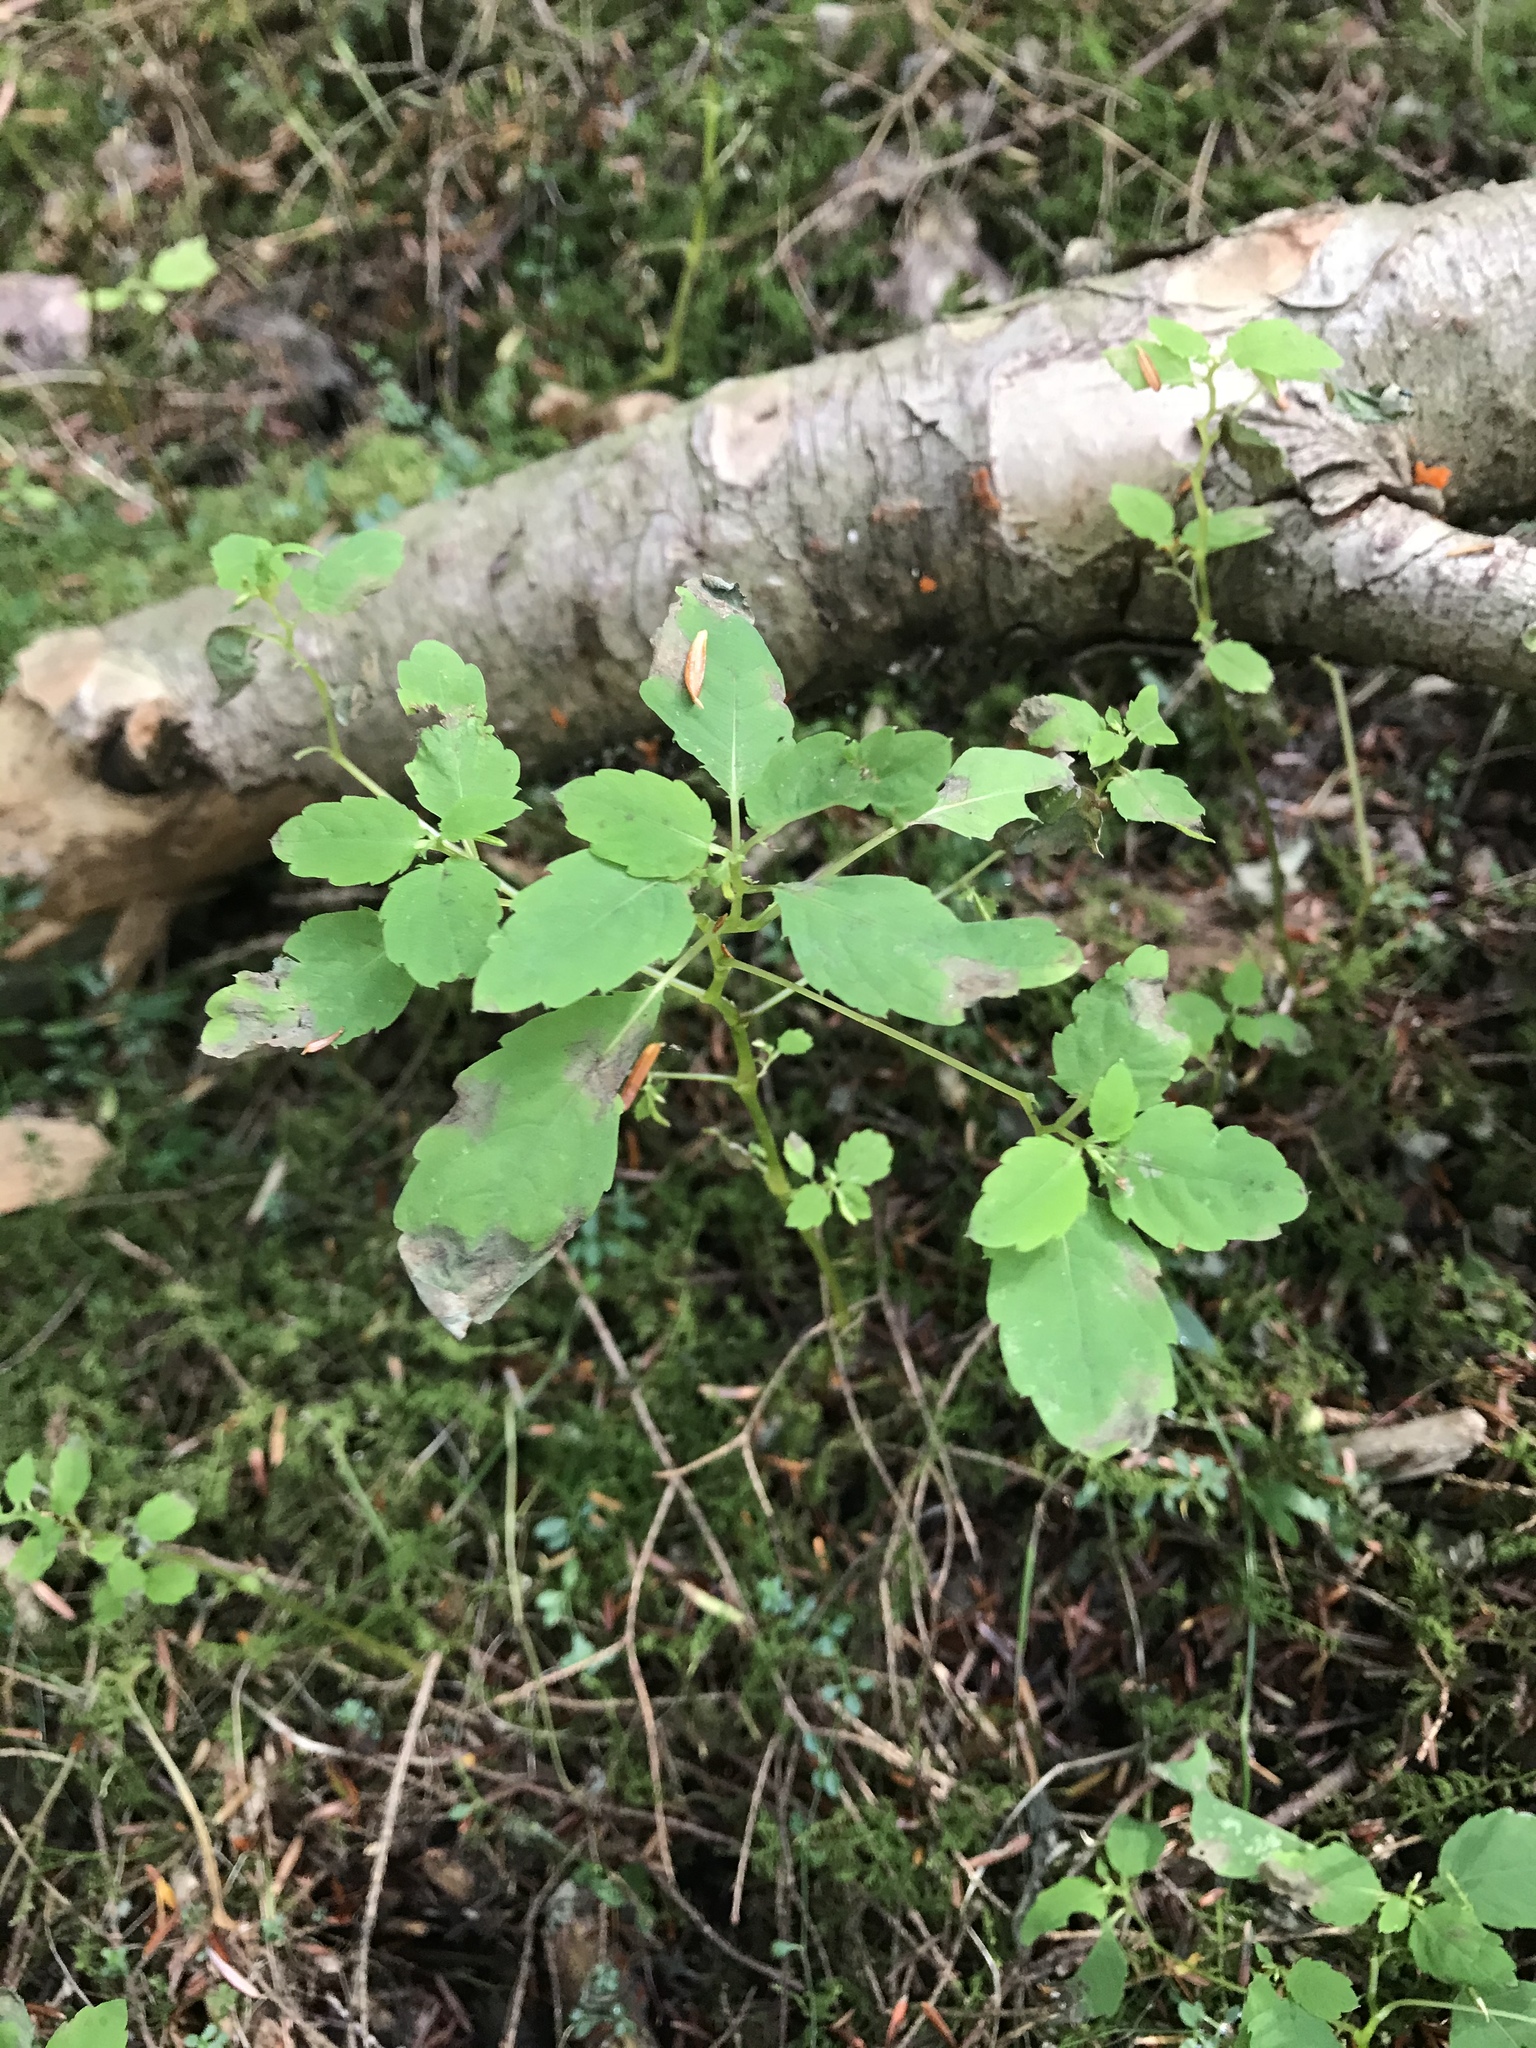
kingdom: Plantae
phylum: Tracheophyta
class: Magnoliopsida
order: Caryophyllales
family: Amaranthaceae
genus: Chenopodium
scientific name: Chenopodium album
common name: Fat-hen
